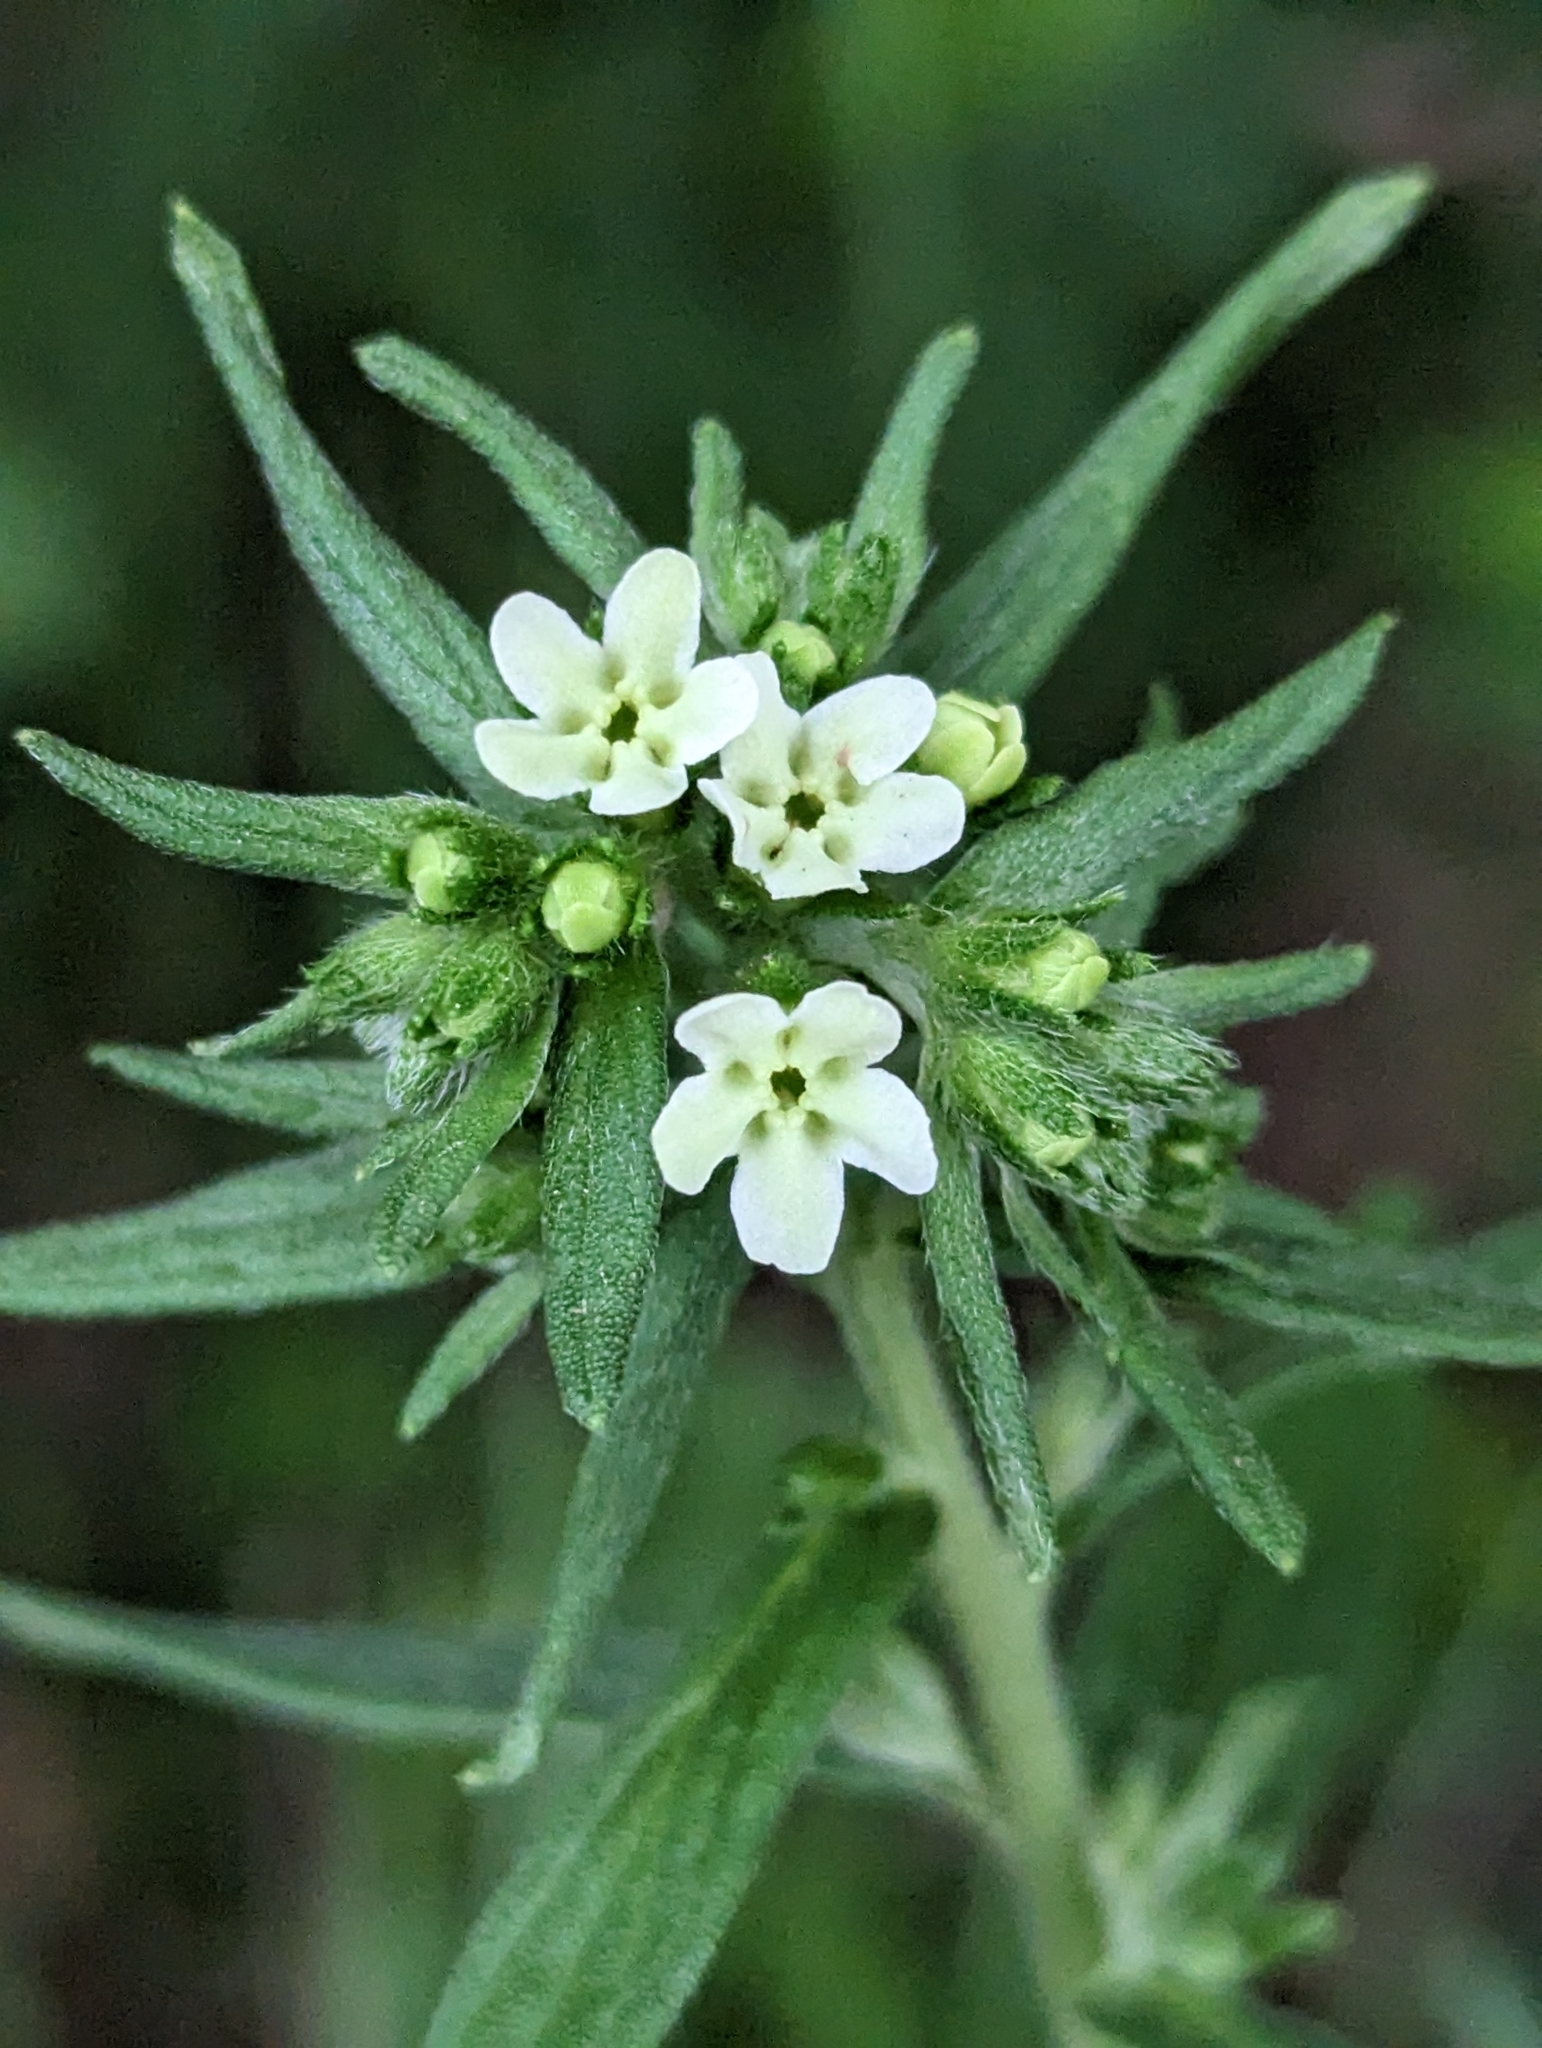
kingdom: Plantae
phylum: Tracheophyta
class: Magnoliopsida
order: Boraginales
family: Boraginaceae
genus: Lithospermum
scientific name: Lithospermum officinale
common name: Common gromwell
